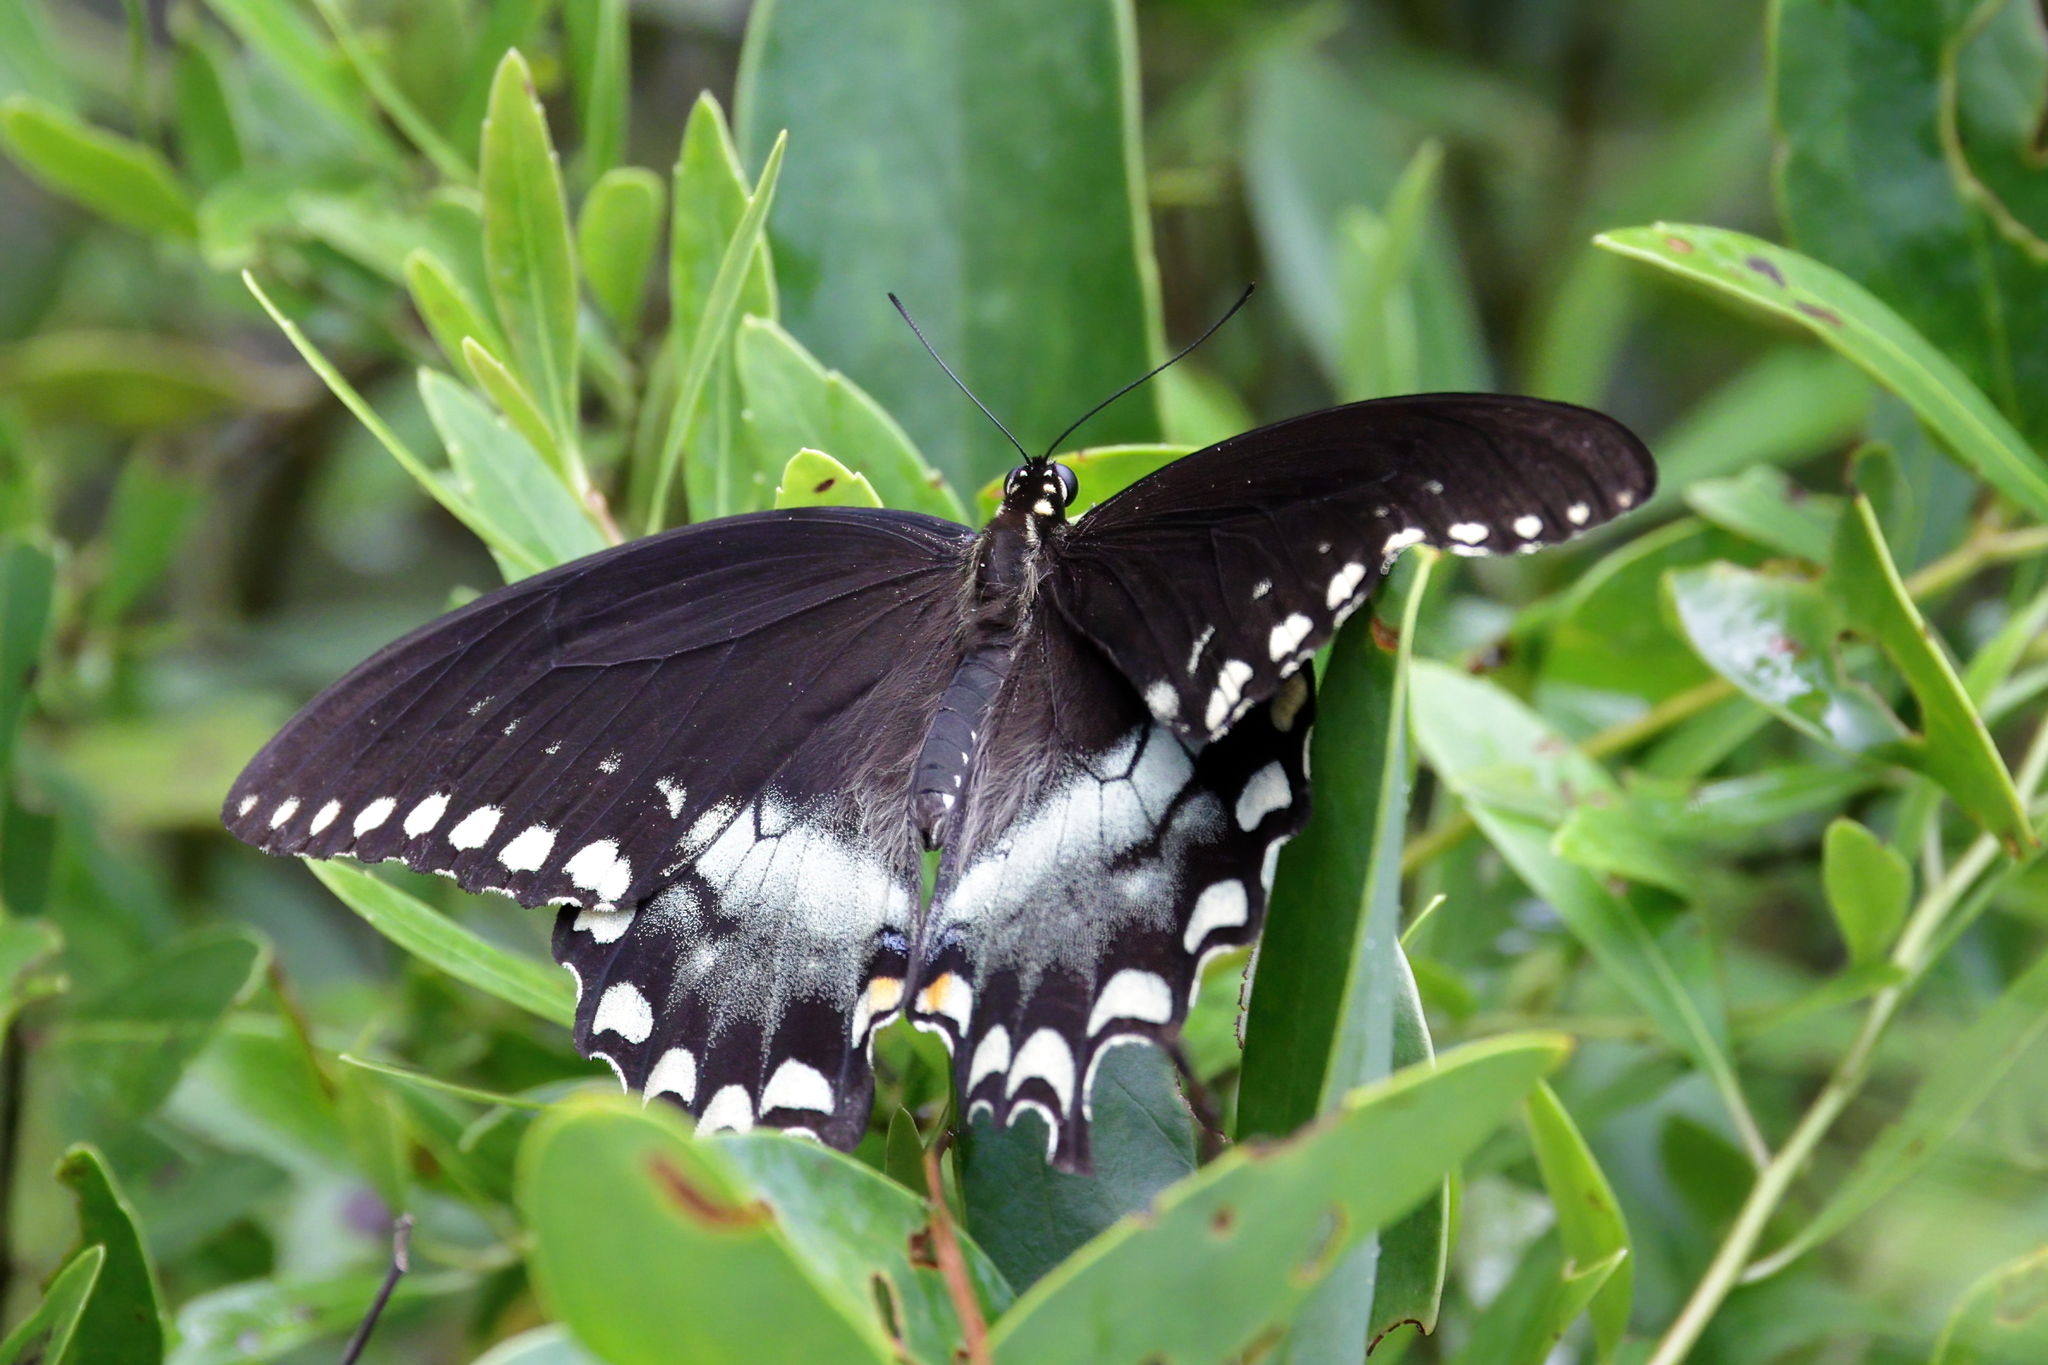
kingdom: Animalia
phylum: Arthropoda
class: Insecta
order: Lepidoptera
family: Papilionidae
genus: Papilio
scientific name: Papilio troilus
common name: Spicebush swallowtail
